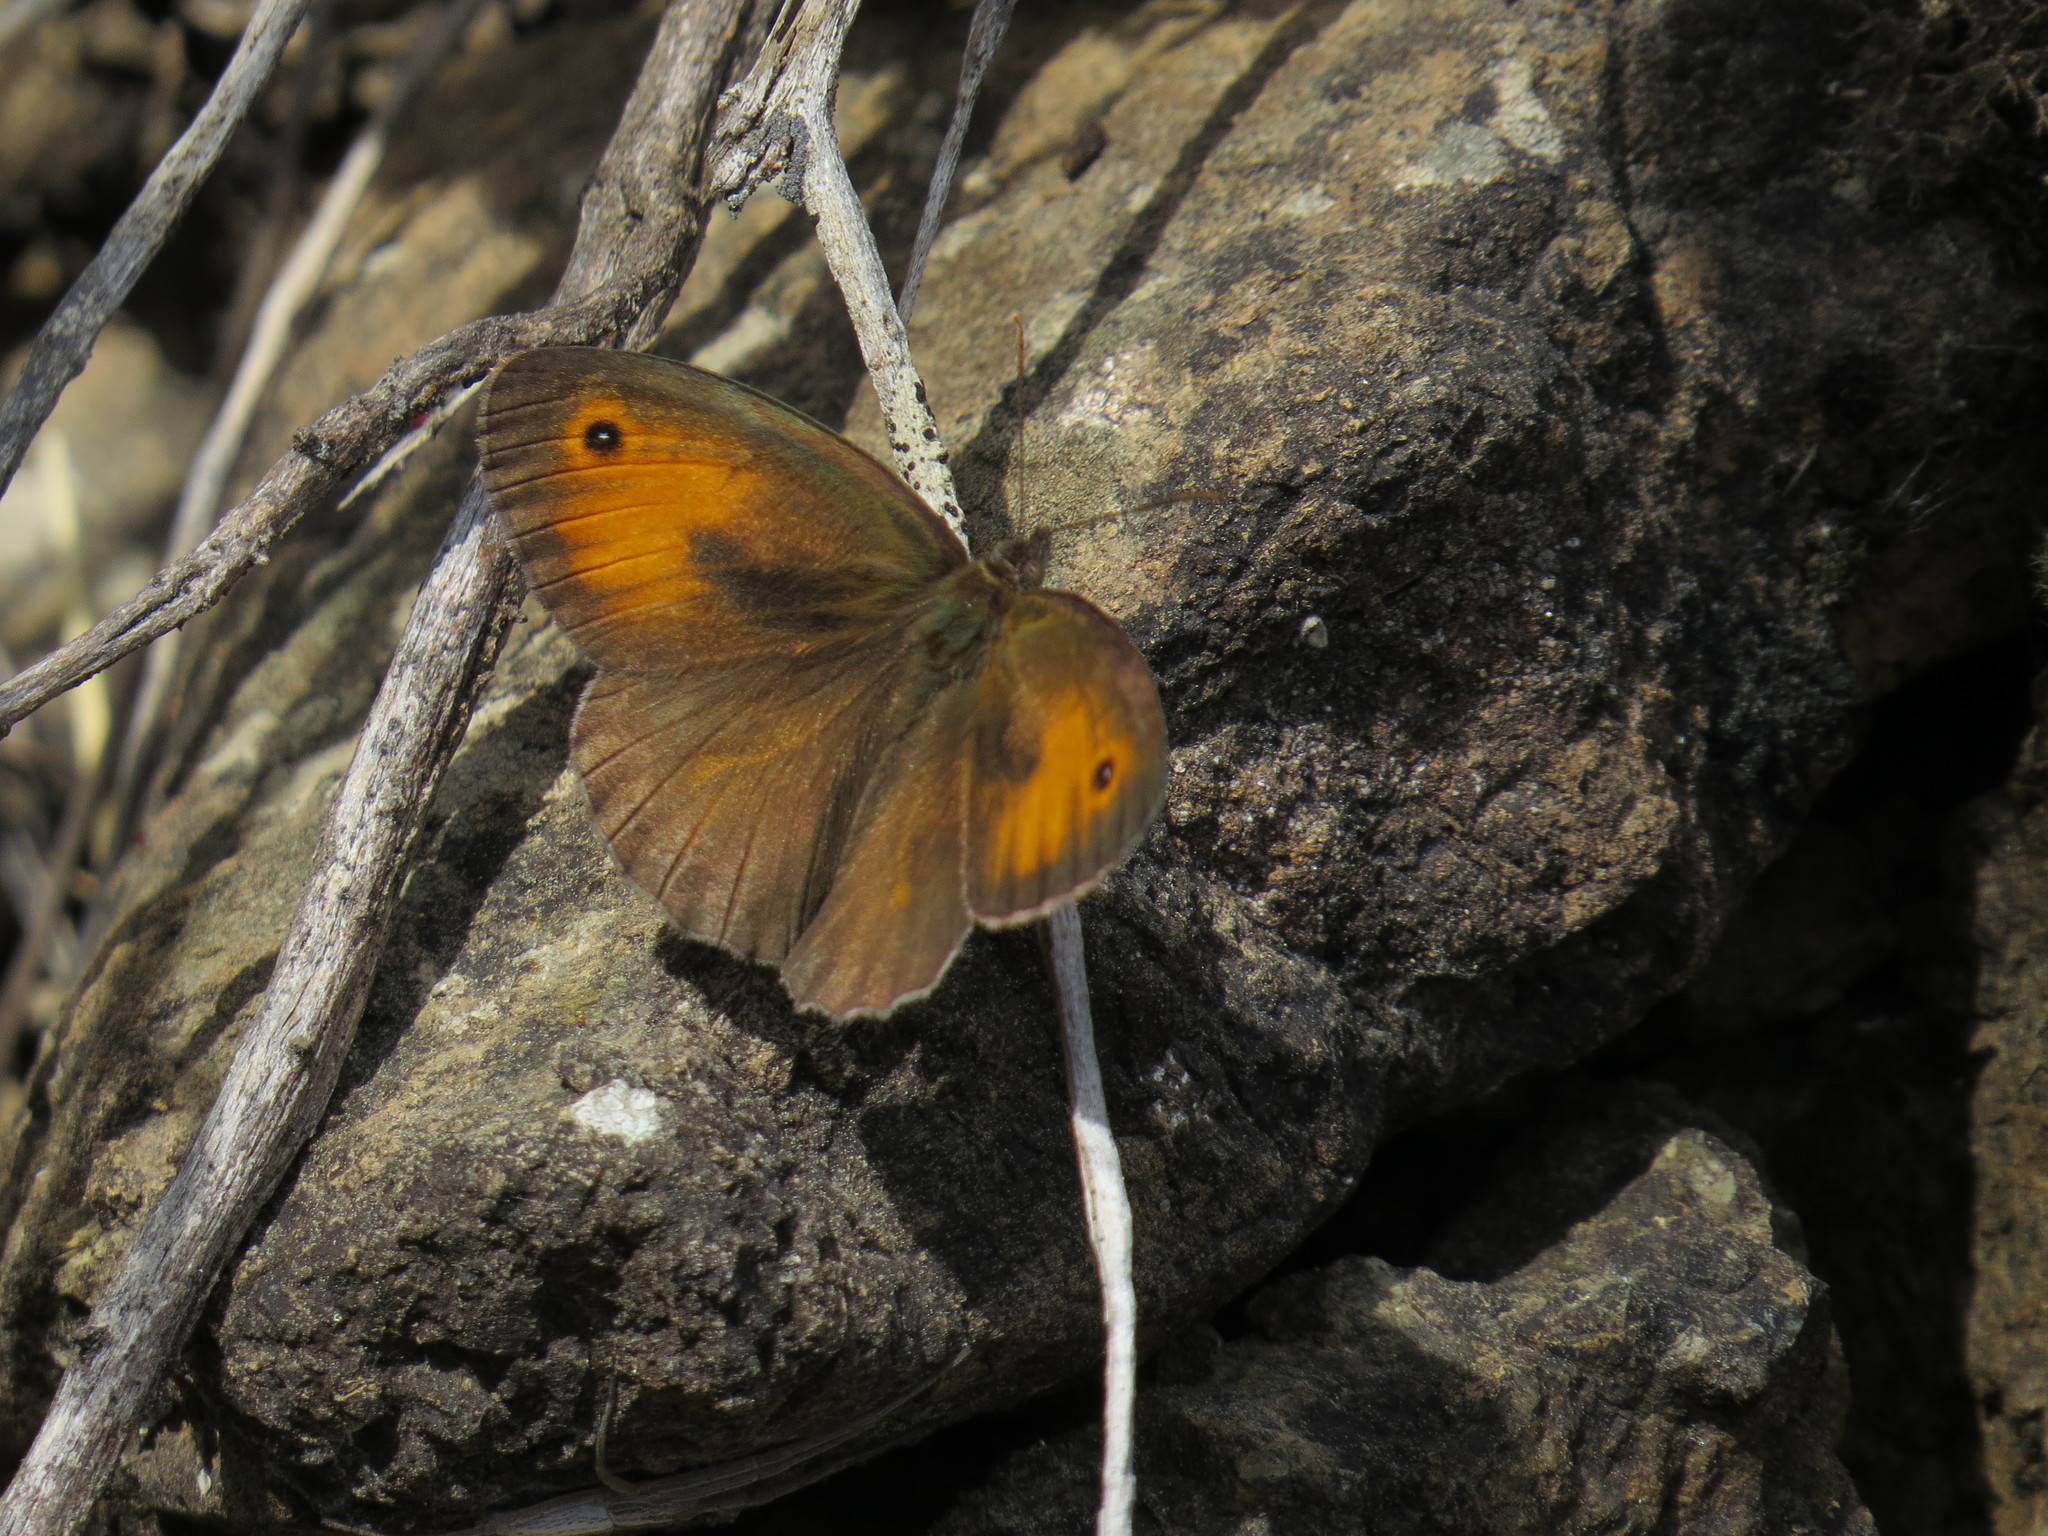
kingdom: Animalia
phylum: Arthropoda
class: Insecta
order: Lepidoptera
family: Nymphalidae
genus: Maniola
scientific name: Maniola telmessia
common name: Persian meadow brown
